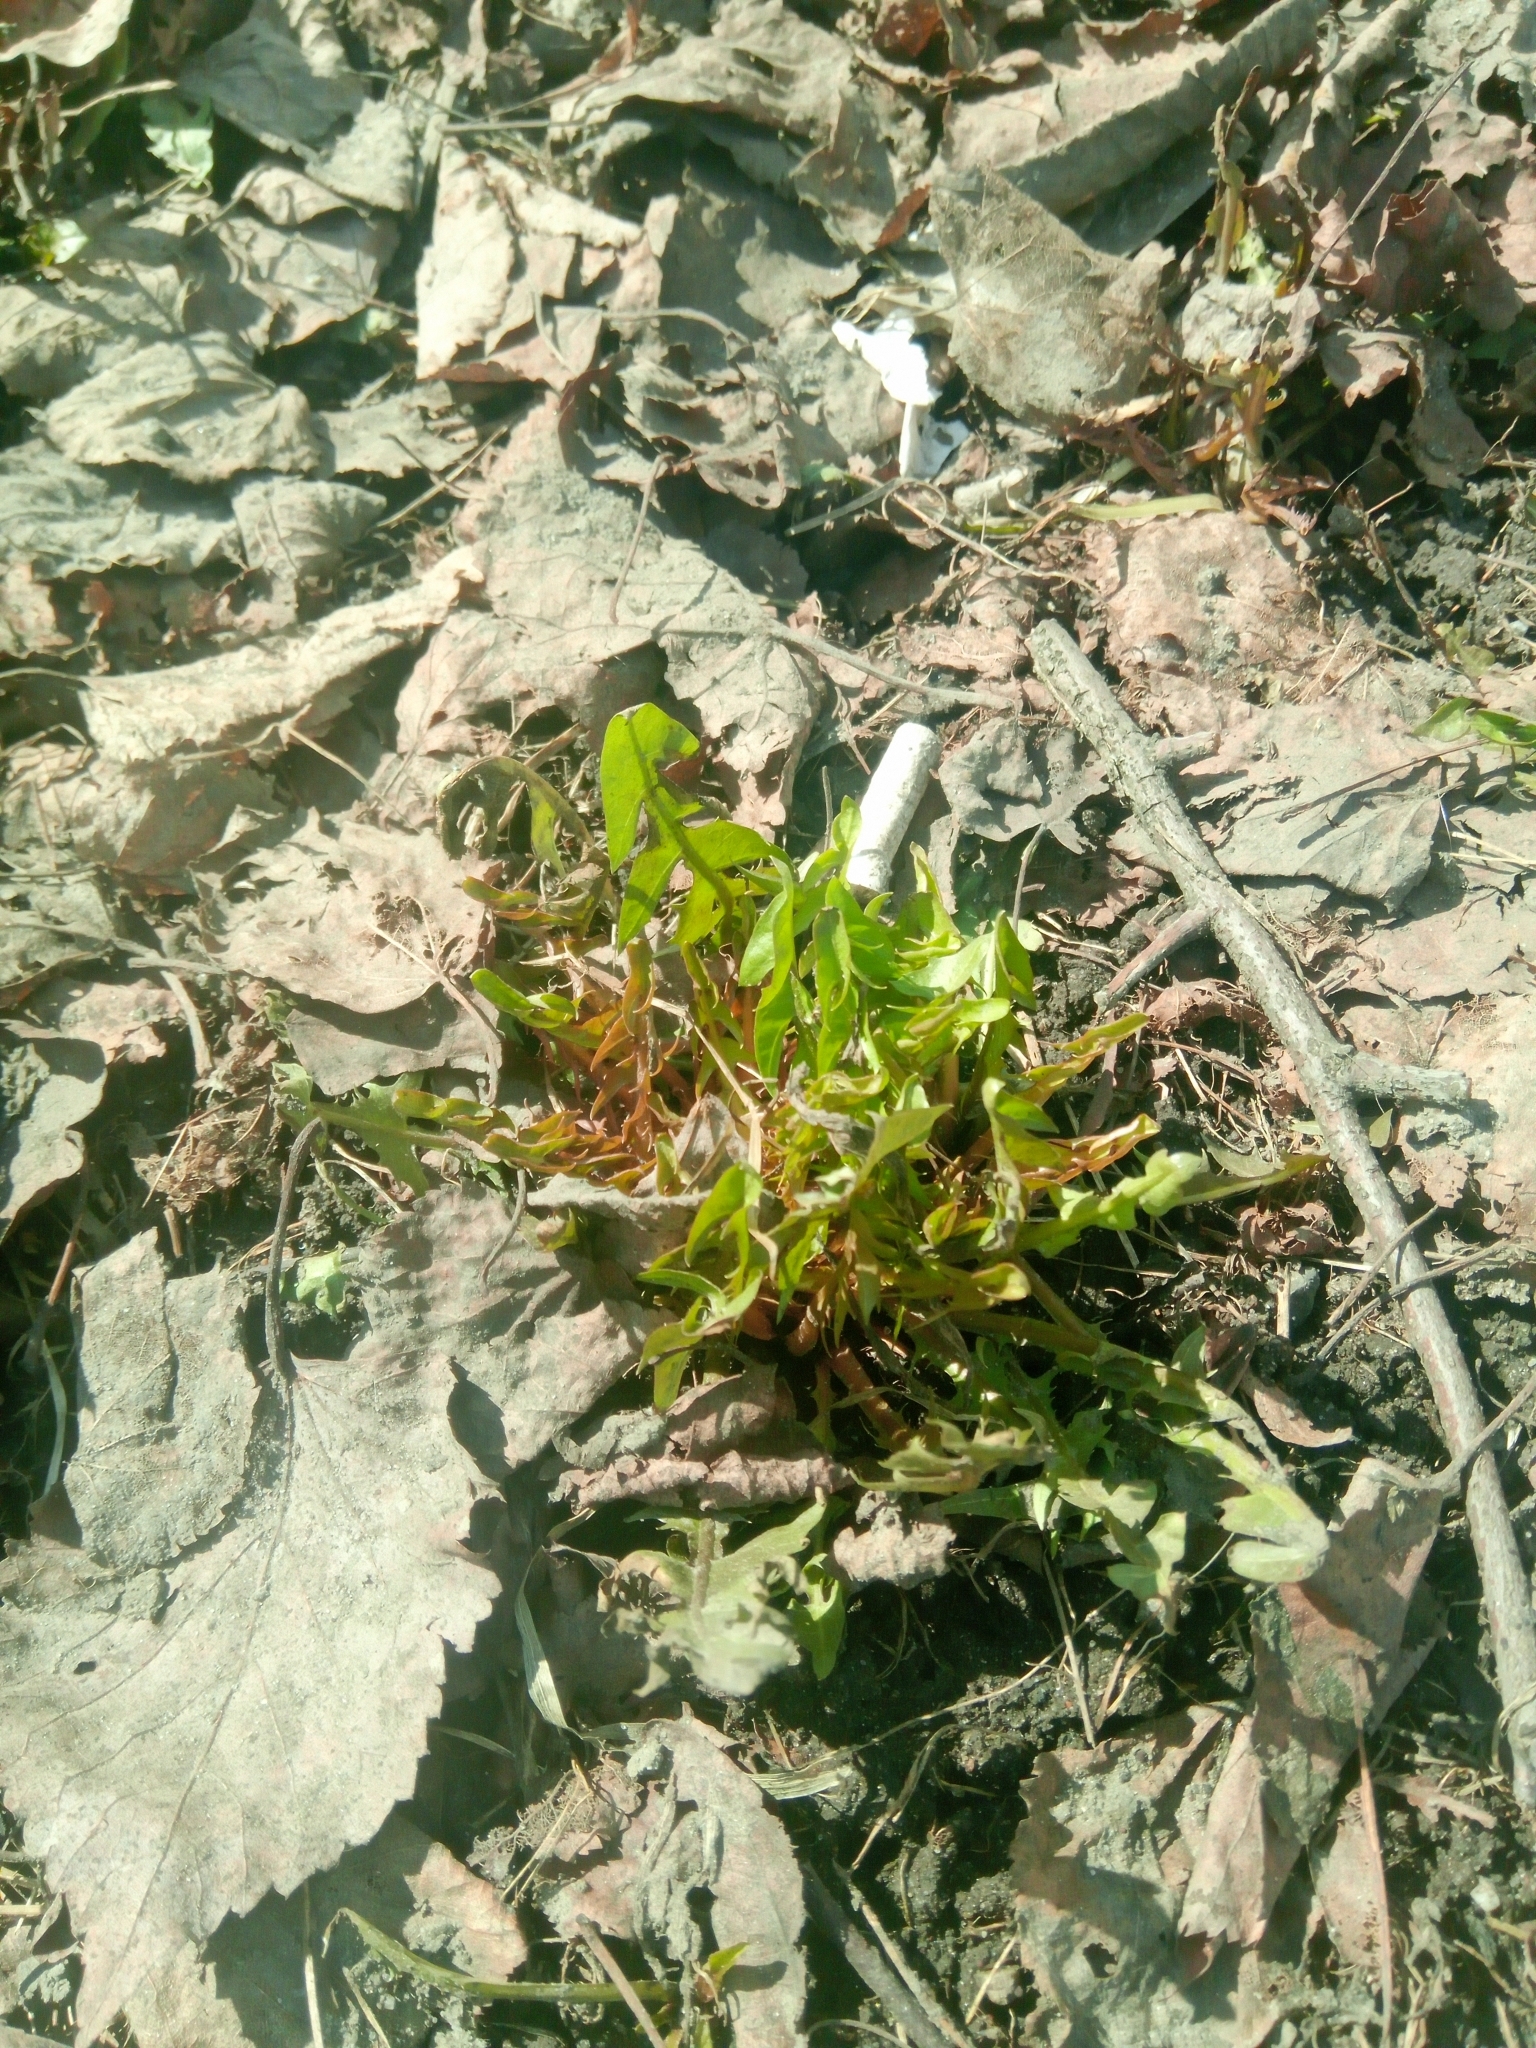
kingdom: Plantae
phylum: Tracheophyta
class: Magnoliopsida
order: Asterales
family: Asteraceae
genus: Taraxacum
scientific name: Taraxacum officinale
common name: Common dandelion
